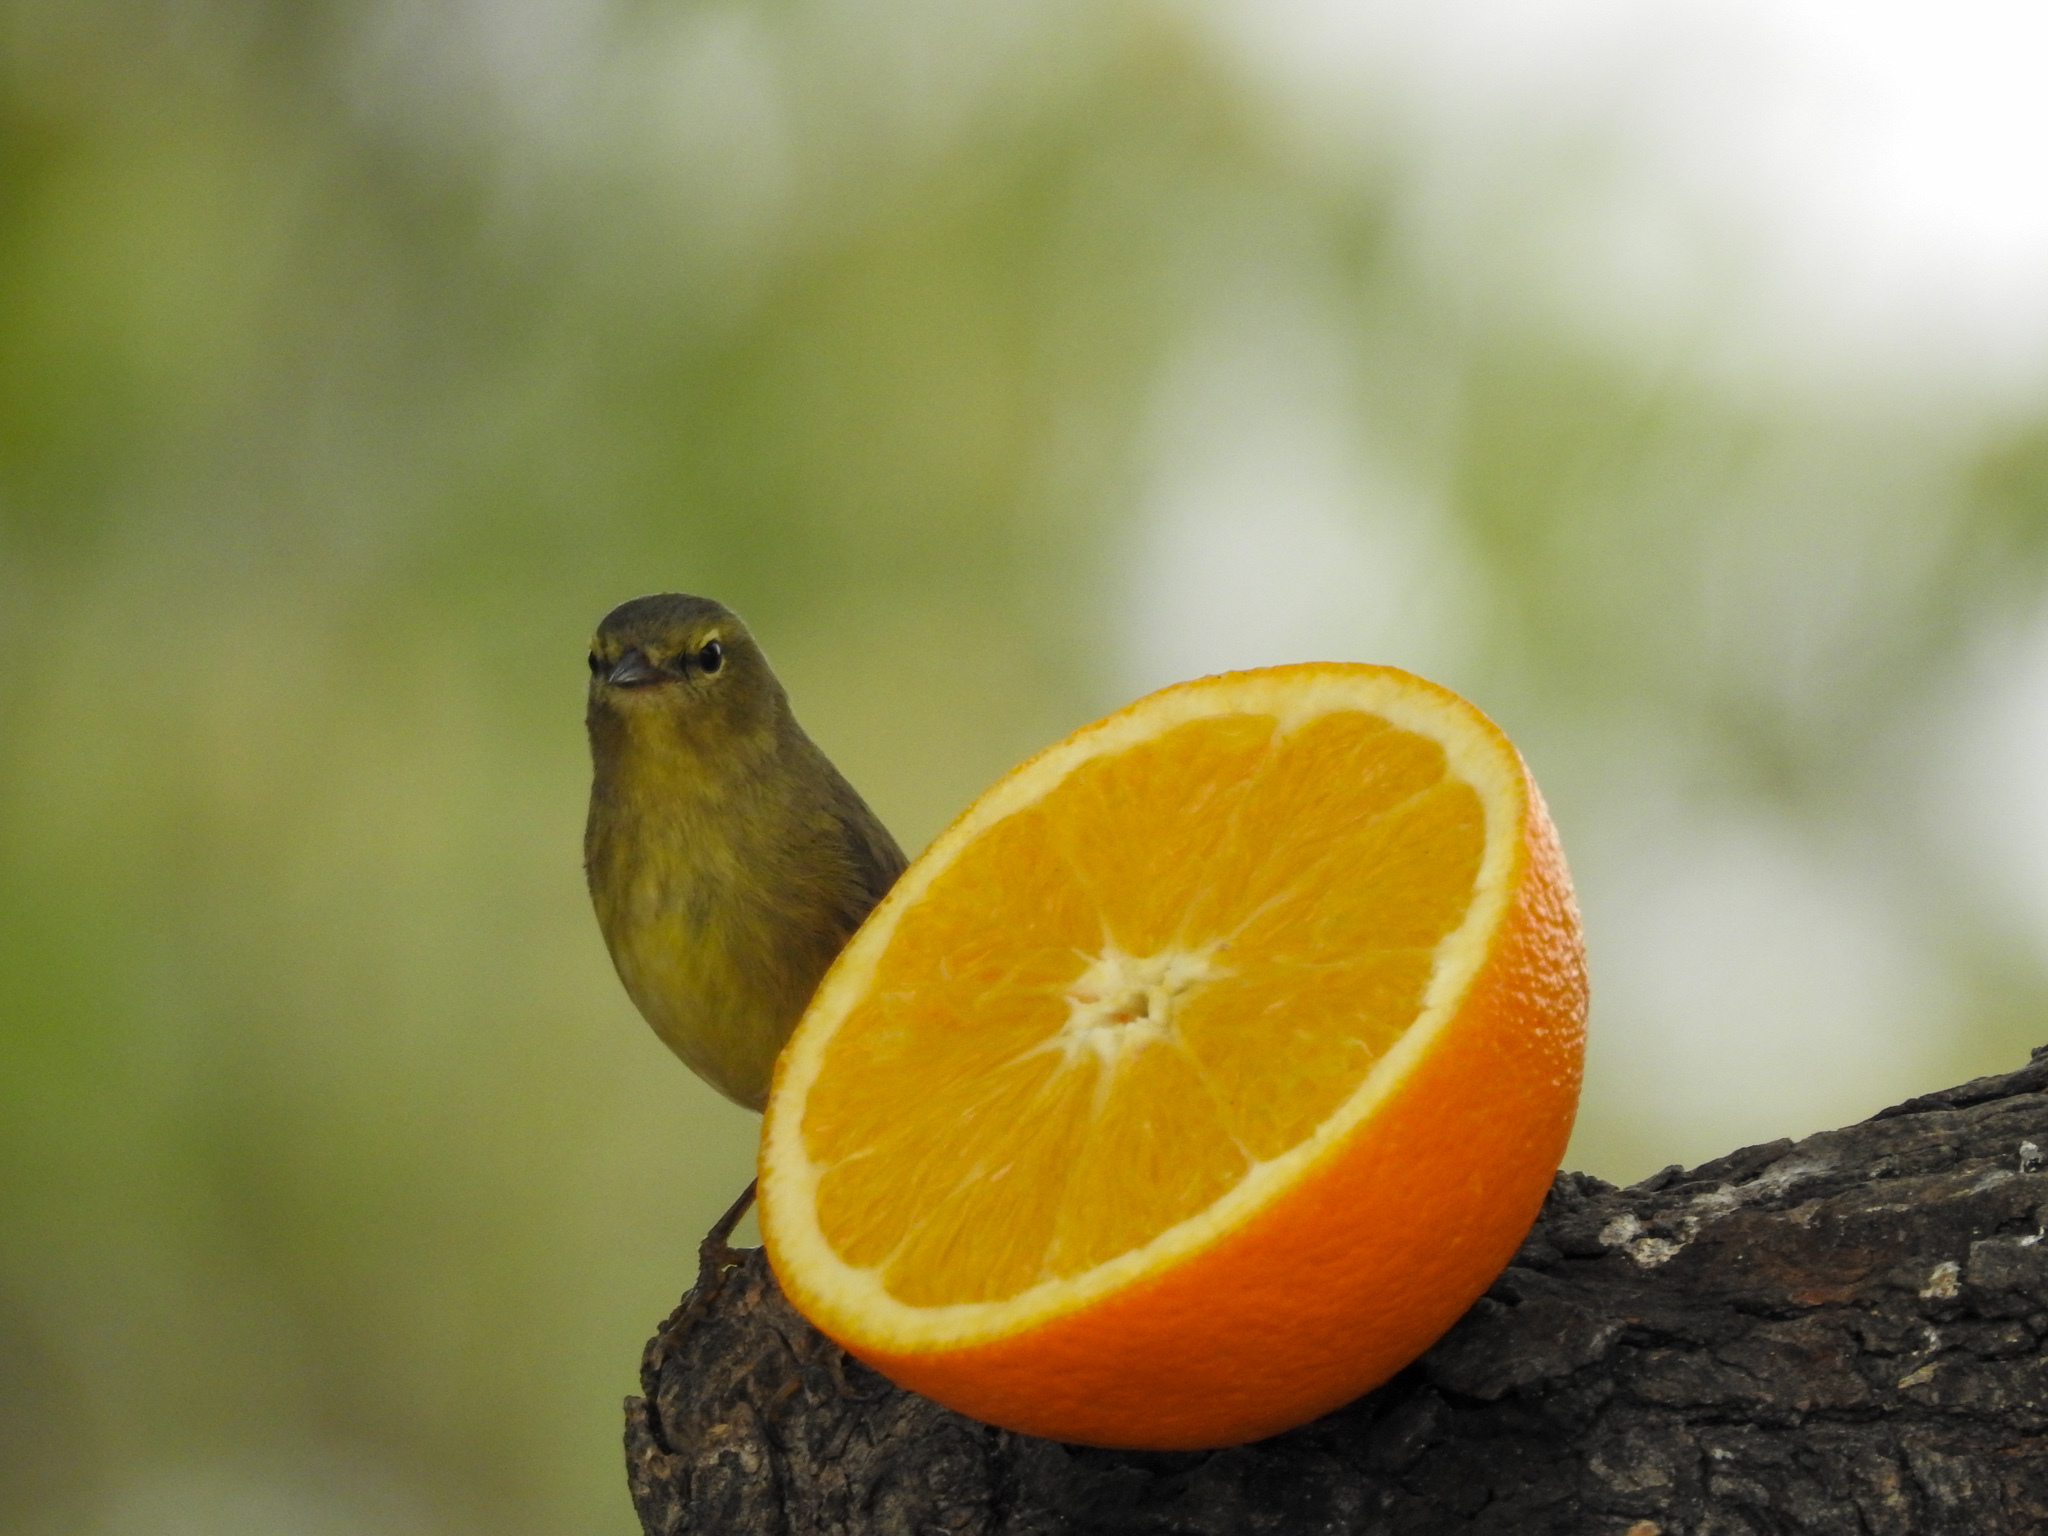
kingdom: Animalia
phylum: Chordata
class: Aves
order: Passeriformes
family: Parulidae
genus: Leiothlypis
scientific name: Leiothlypis celata
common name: Orange-crowned warbler
